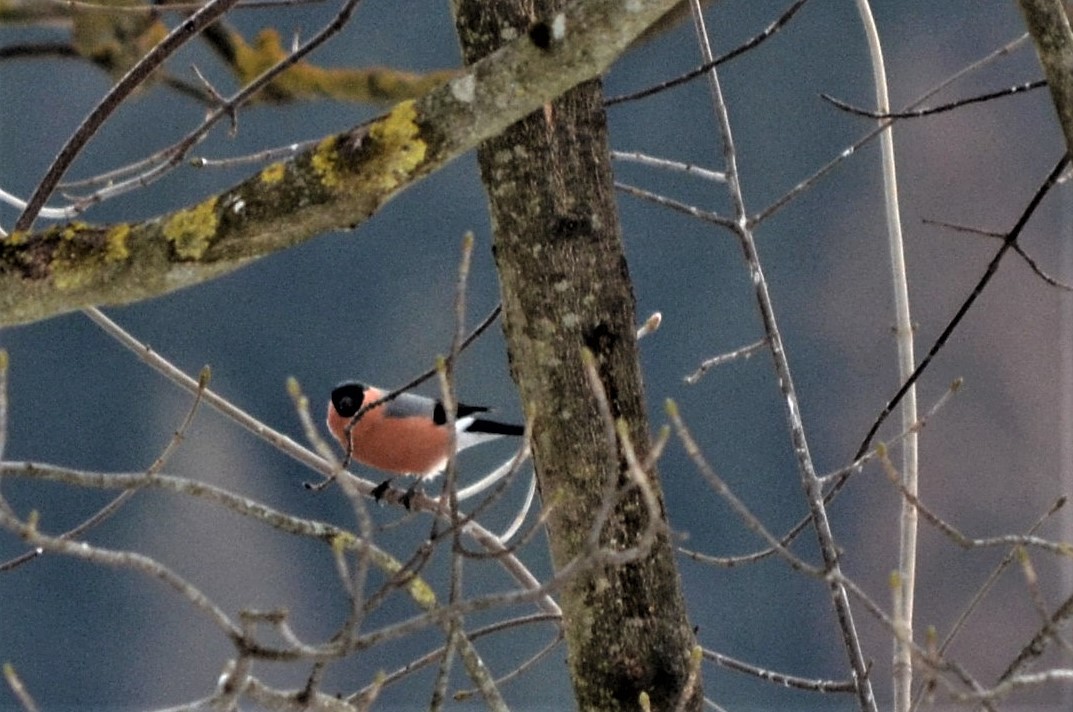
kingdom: Animalia
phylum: Chordata
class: Aves
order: Passeriformes
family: Fringillidae
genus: Pyrrhula
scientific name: Pyrrhula pyrrhula
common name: Eurasian bullfinch
